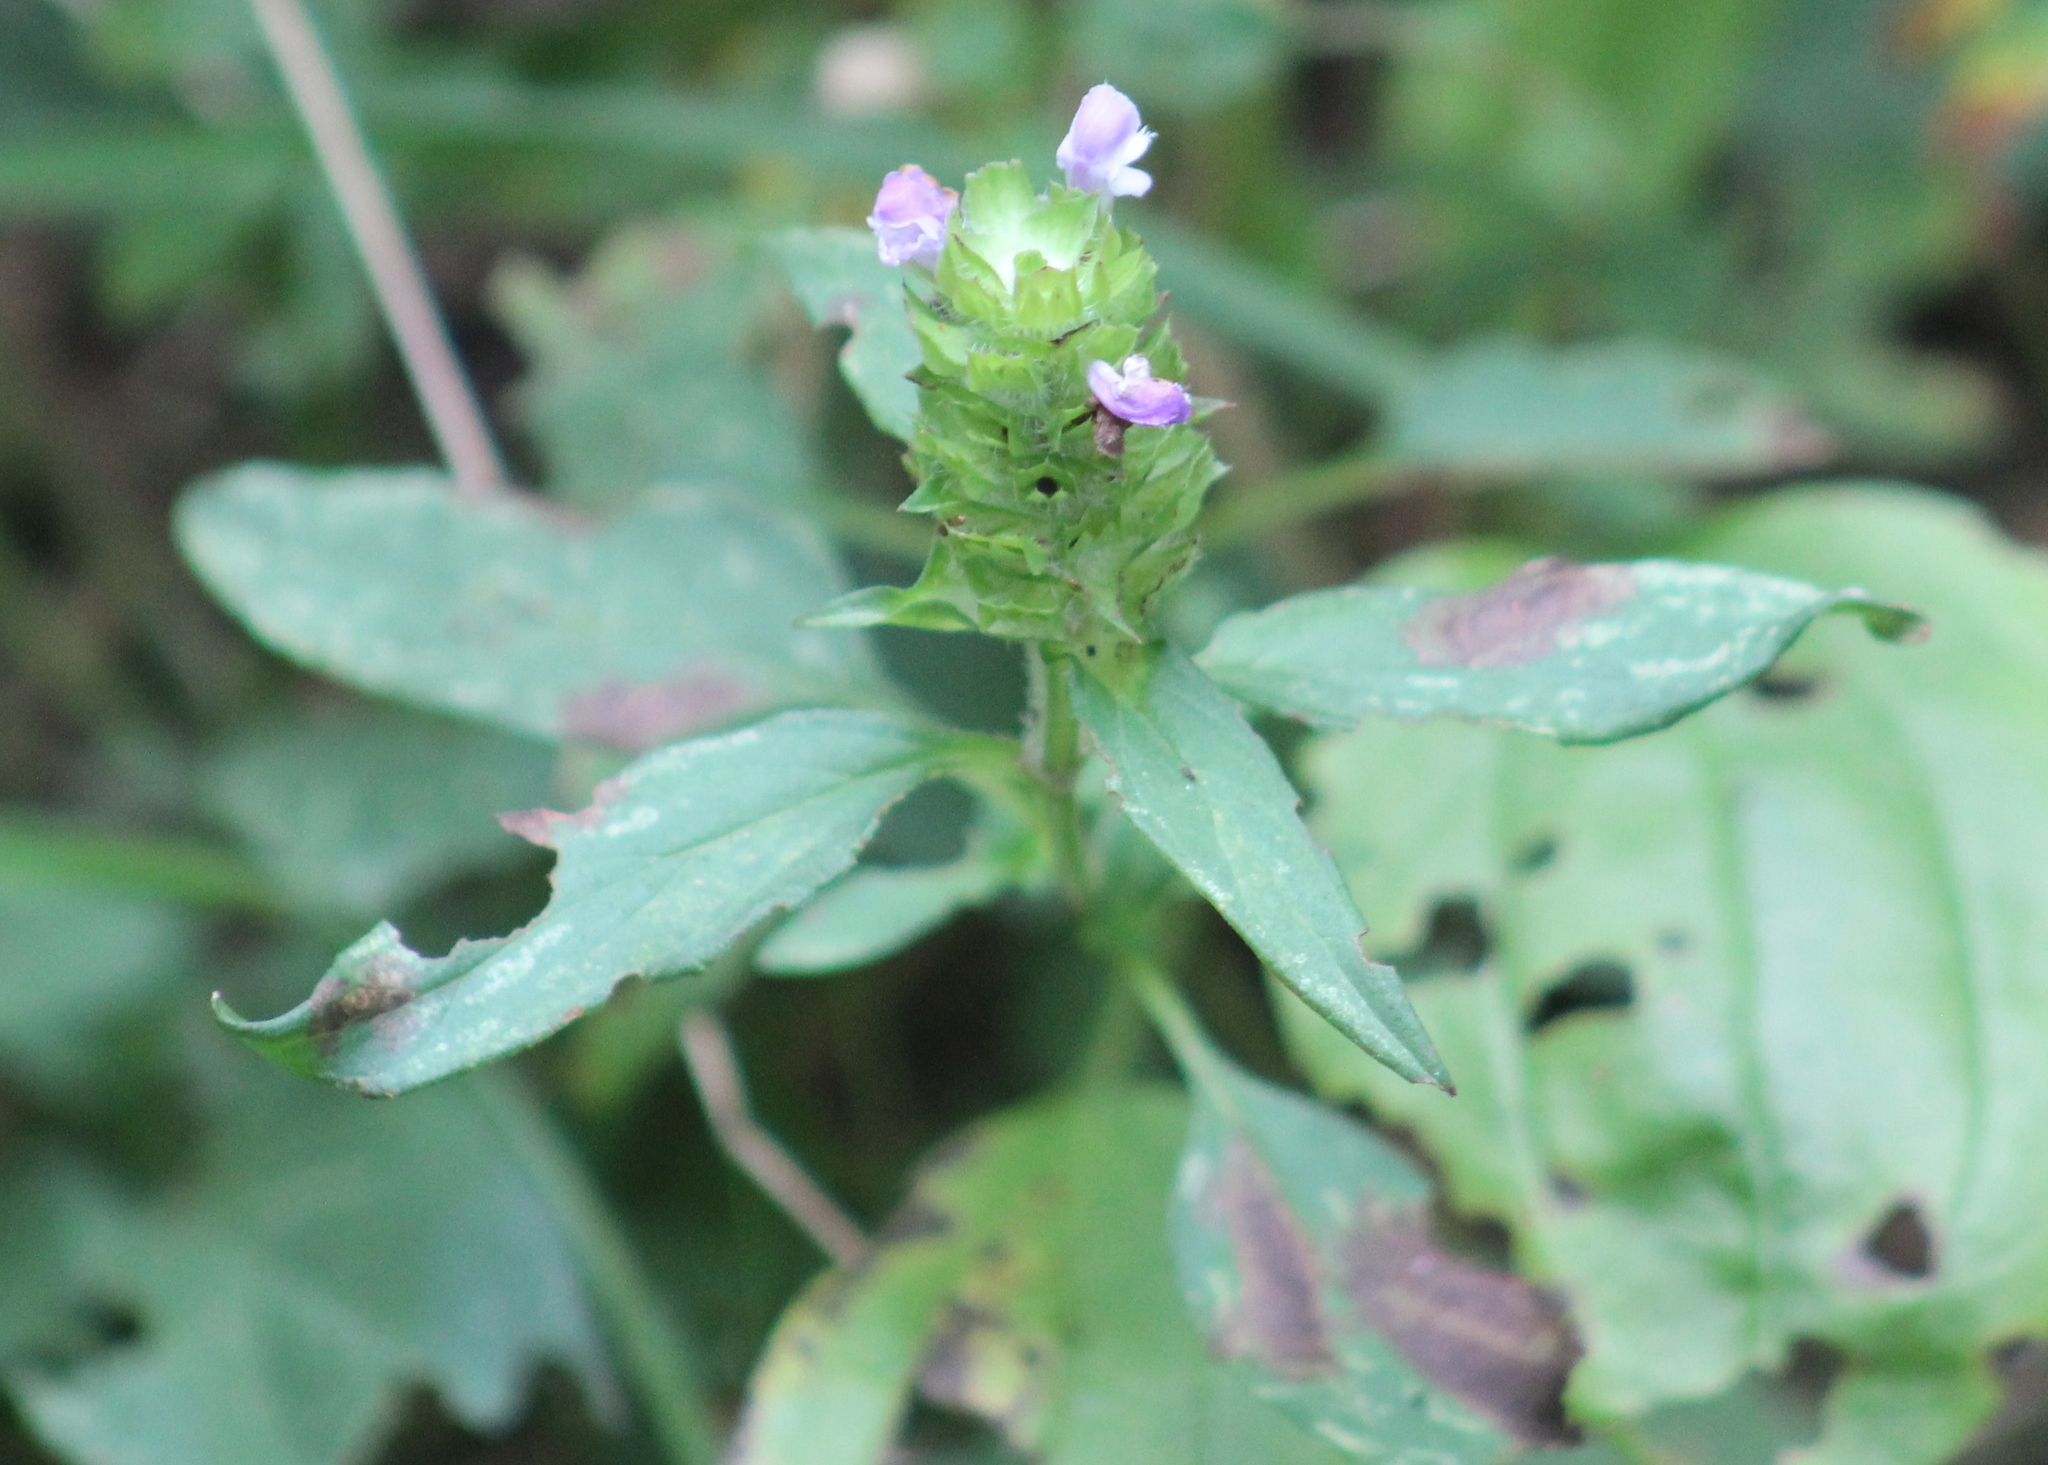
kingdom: Plantae
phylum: Tracheophyta
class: Magnoliopsida
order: Lamiales
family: Lamiaceae
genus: Prunella
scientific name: Prunella vulgaris
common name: Heal-all
